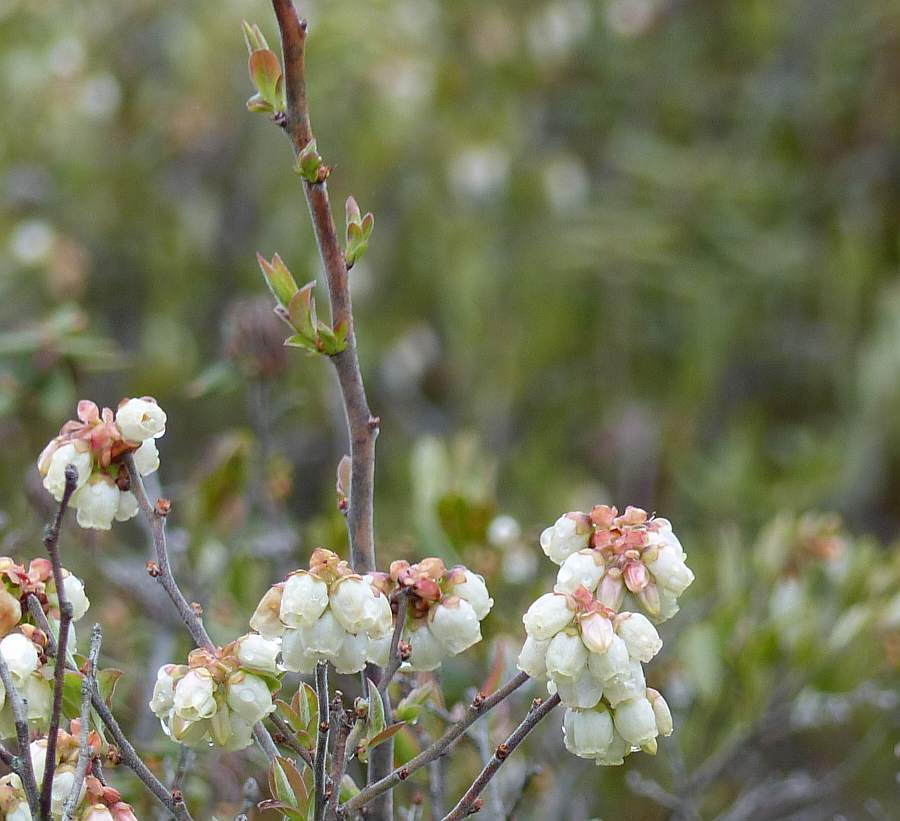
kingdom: Plantae
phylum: Tracheophyta
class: Magnoliopsida
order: Ericales
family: Ericaceae
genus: Vaccinium
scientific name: Vaccinium corymbosum
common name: Blueberry
